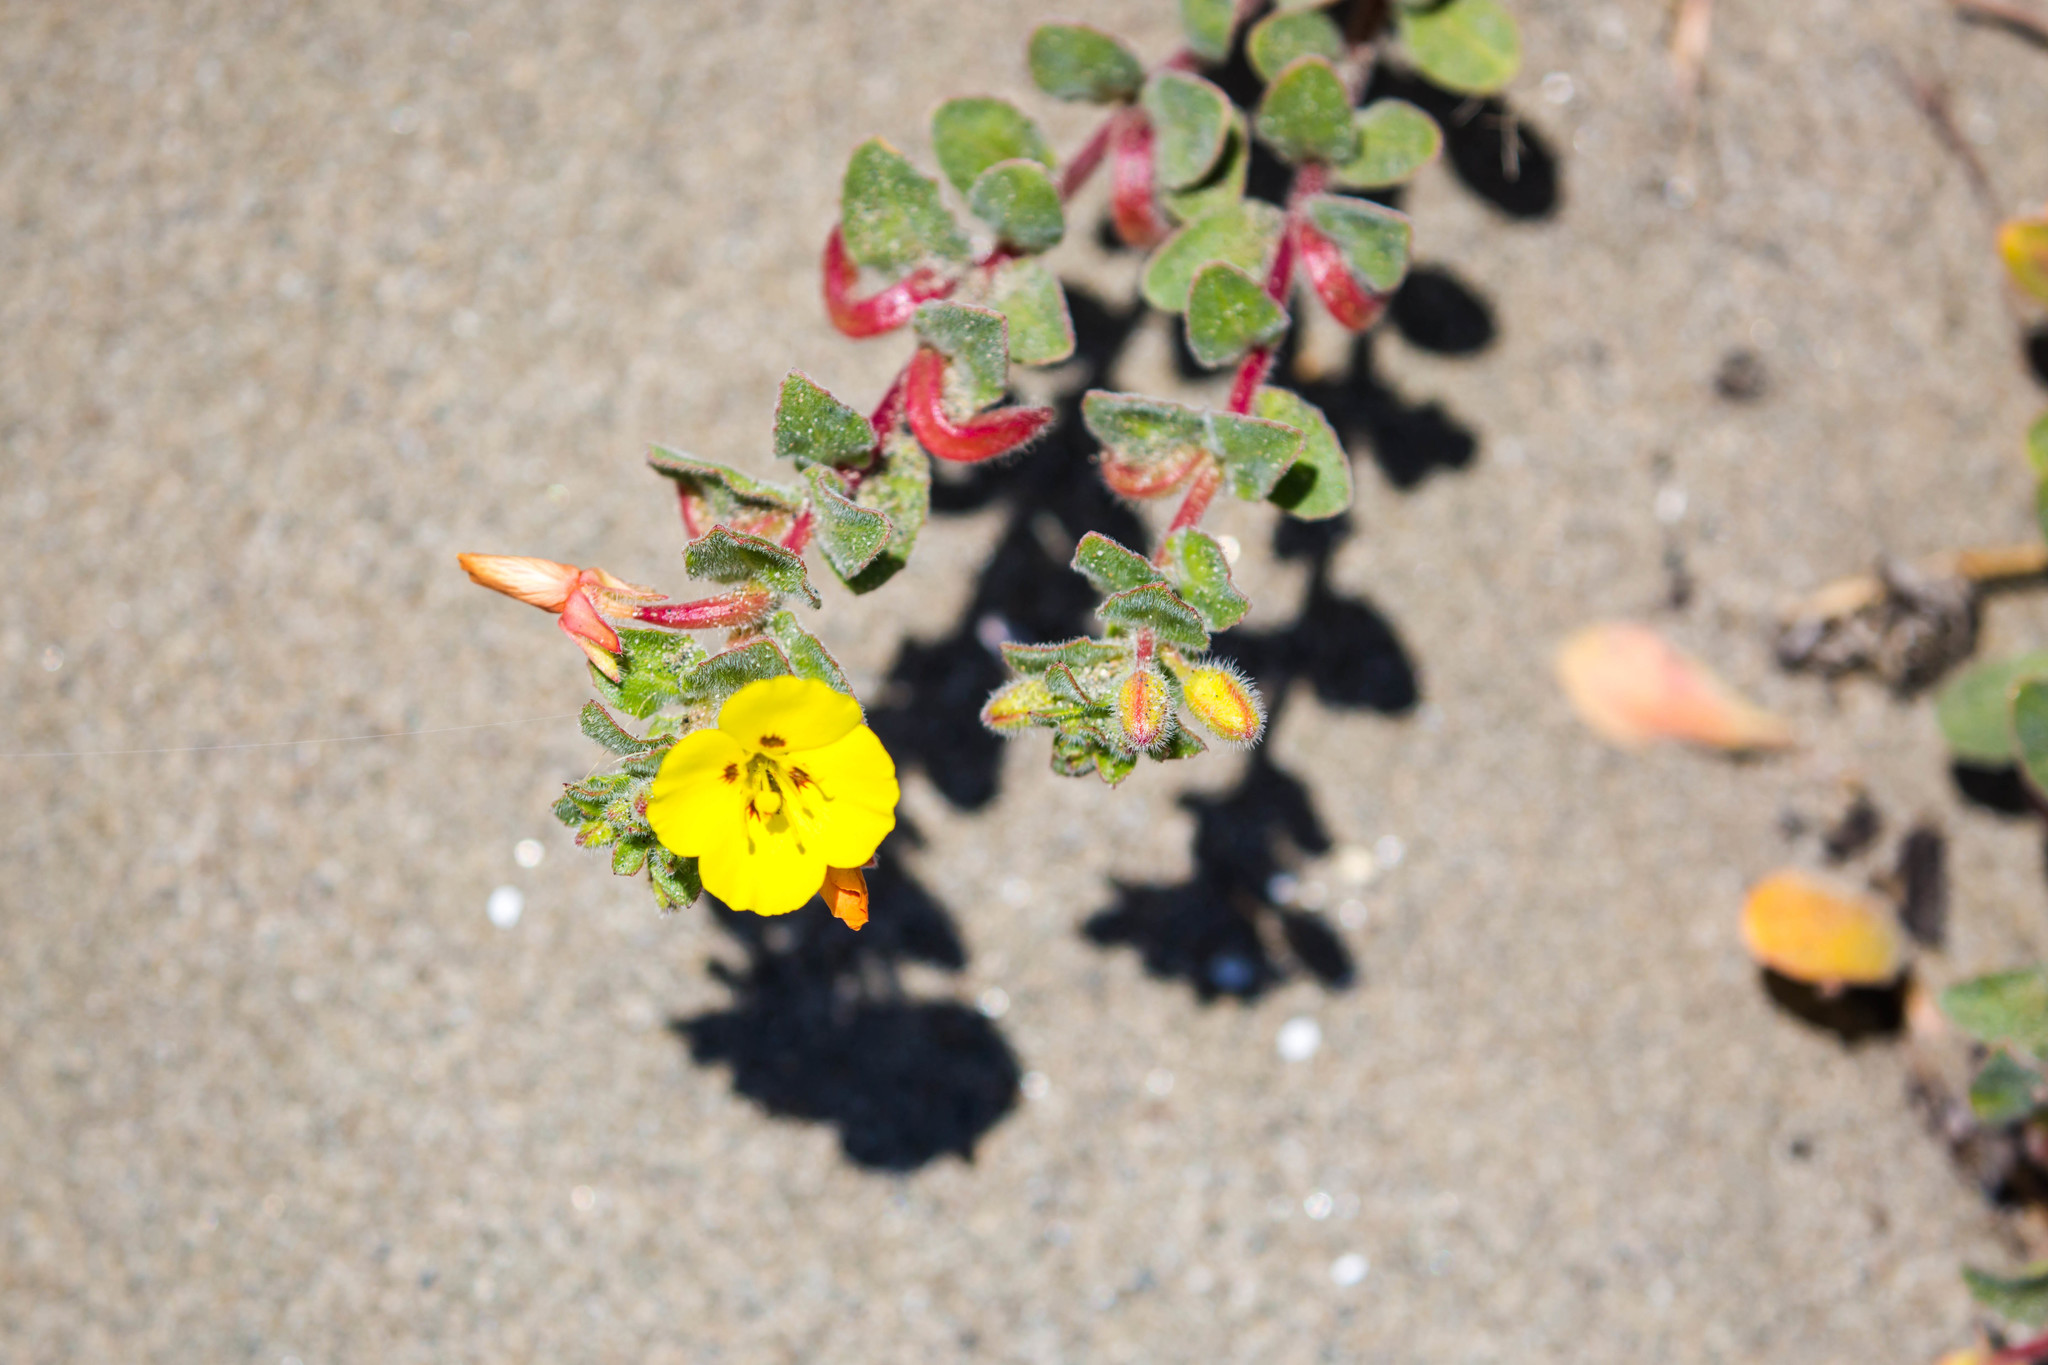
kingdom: Plantae
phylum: Tracheophyta
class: Magnoliopsida
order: Myrtales
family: Onagraceae
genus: Camissoniopsis
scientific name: Camissoniopsis cheiranthifolia
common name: Beach suncup
